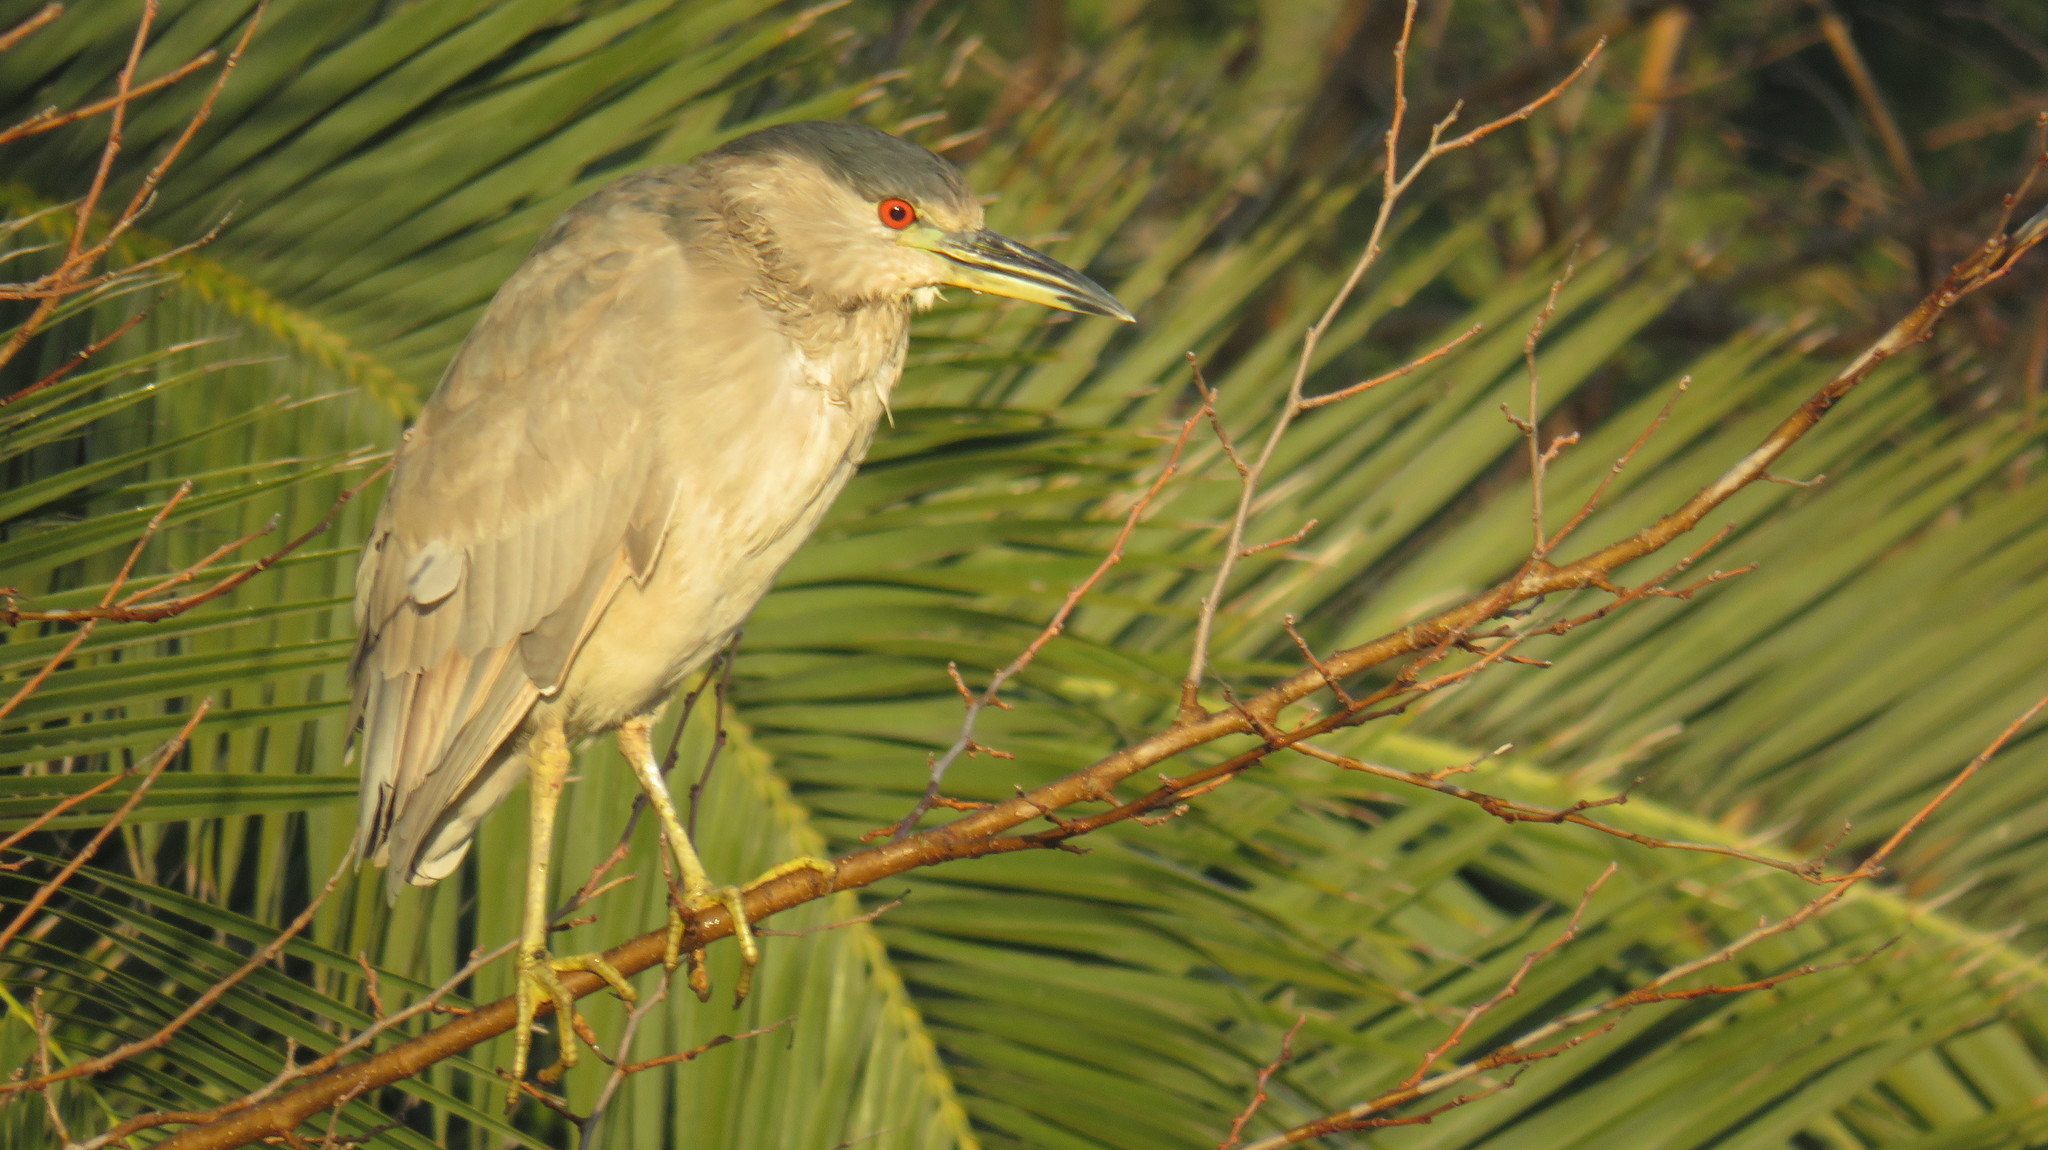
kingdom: Animalia
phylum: Chordata
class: Aves
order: Pelecaniformes
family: Ardeidae
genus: Nycticorax
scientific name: Nycticorax nycticorax
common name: Black-crowned night heron
